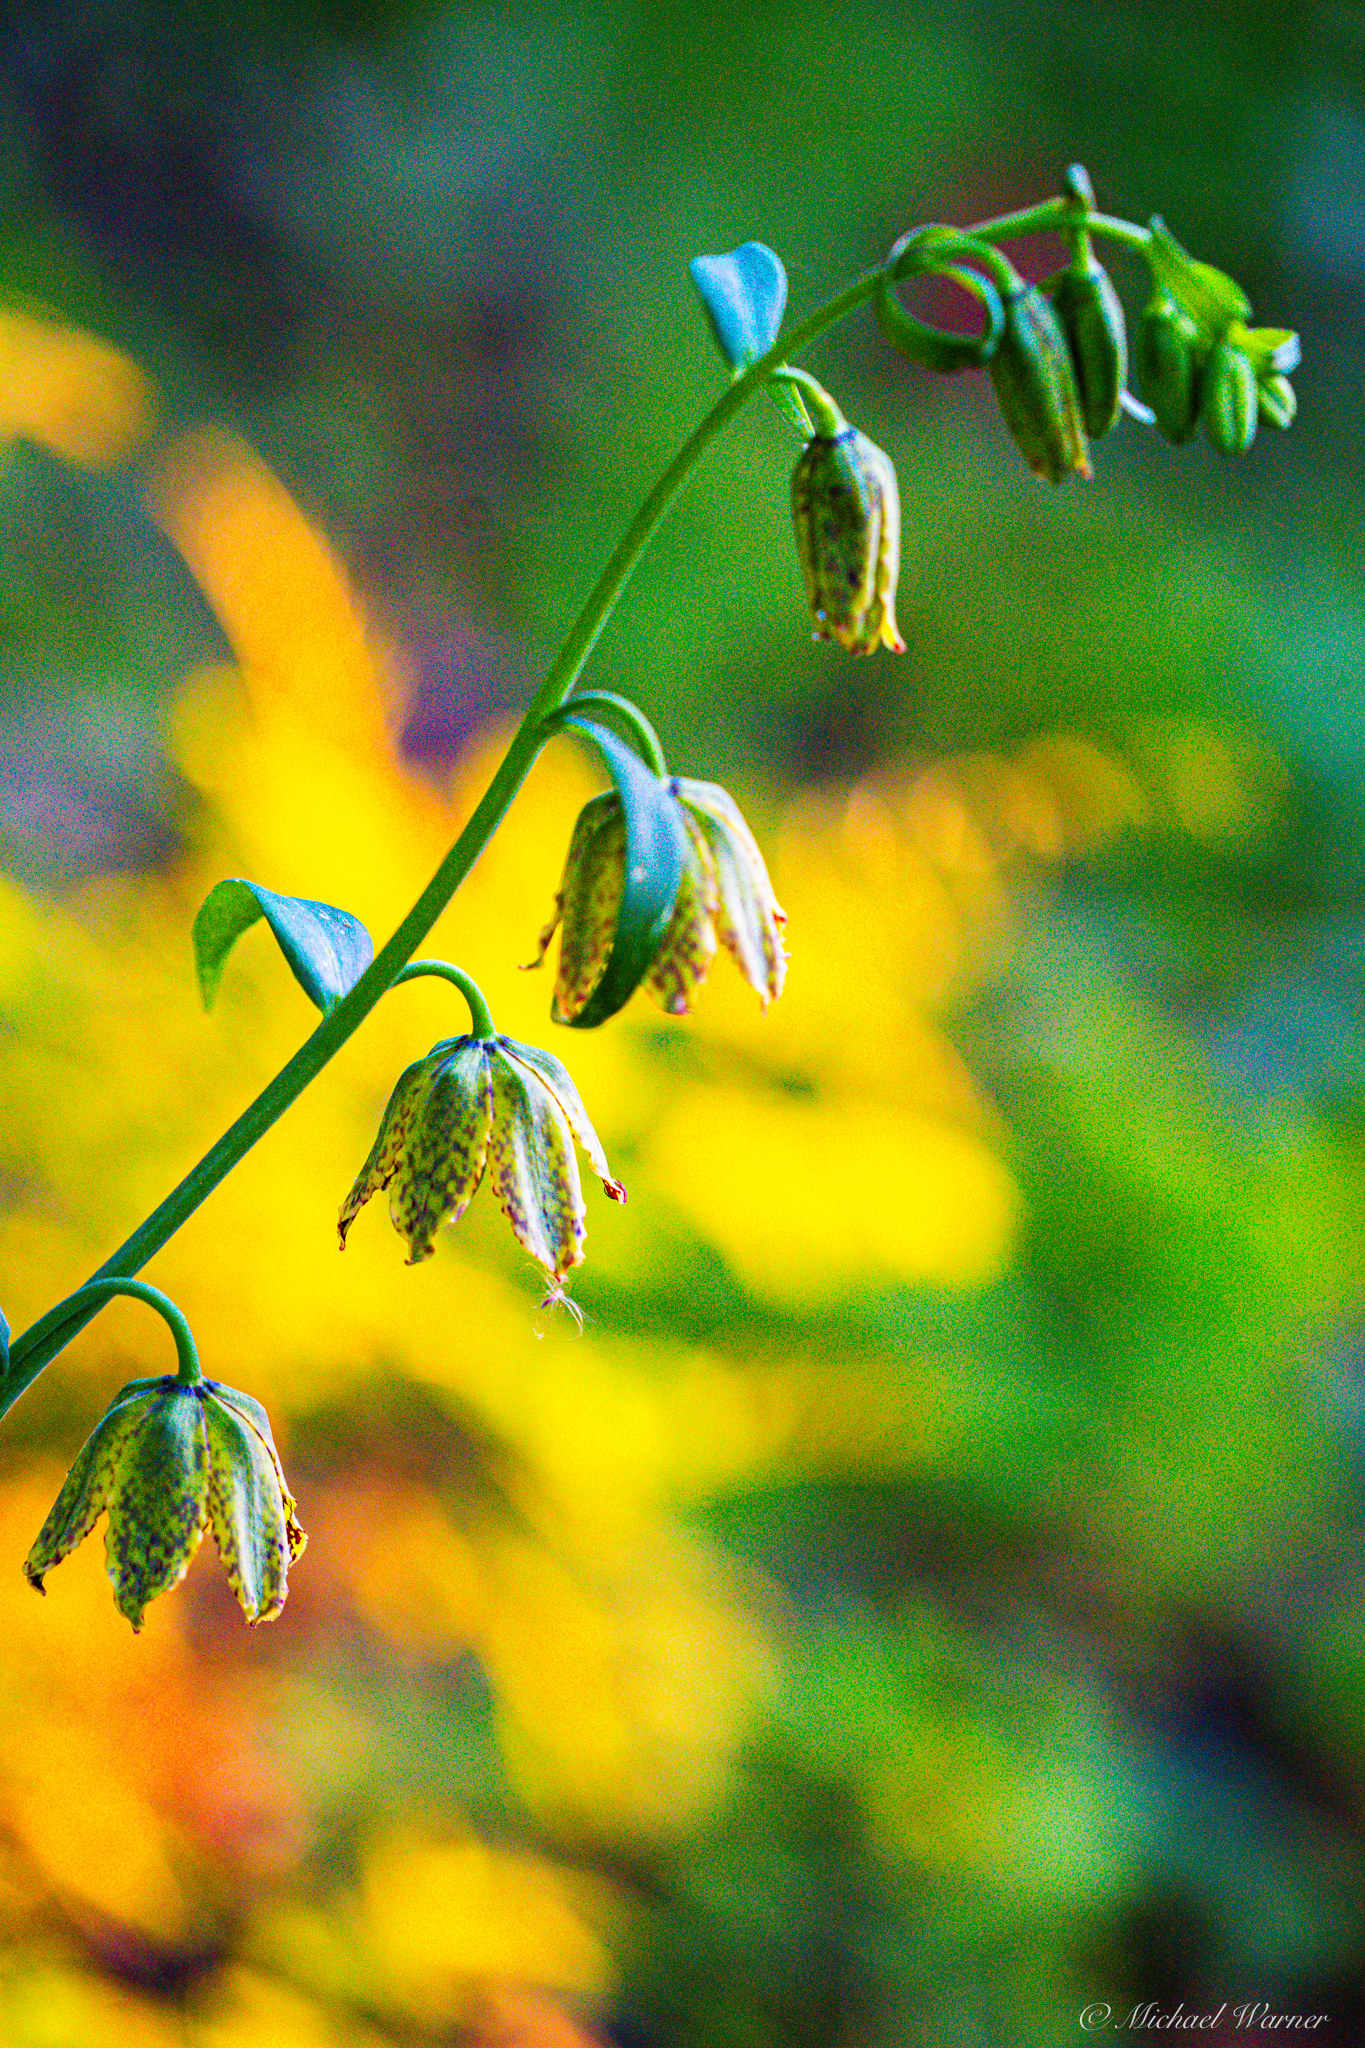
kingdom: Plantae
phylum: Tracheophyta
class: Liliopsida
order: Liliales
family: Liliaceae
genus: Fritillaria
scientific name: Fritillaria affinis
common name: Ojai fritillary
